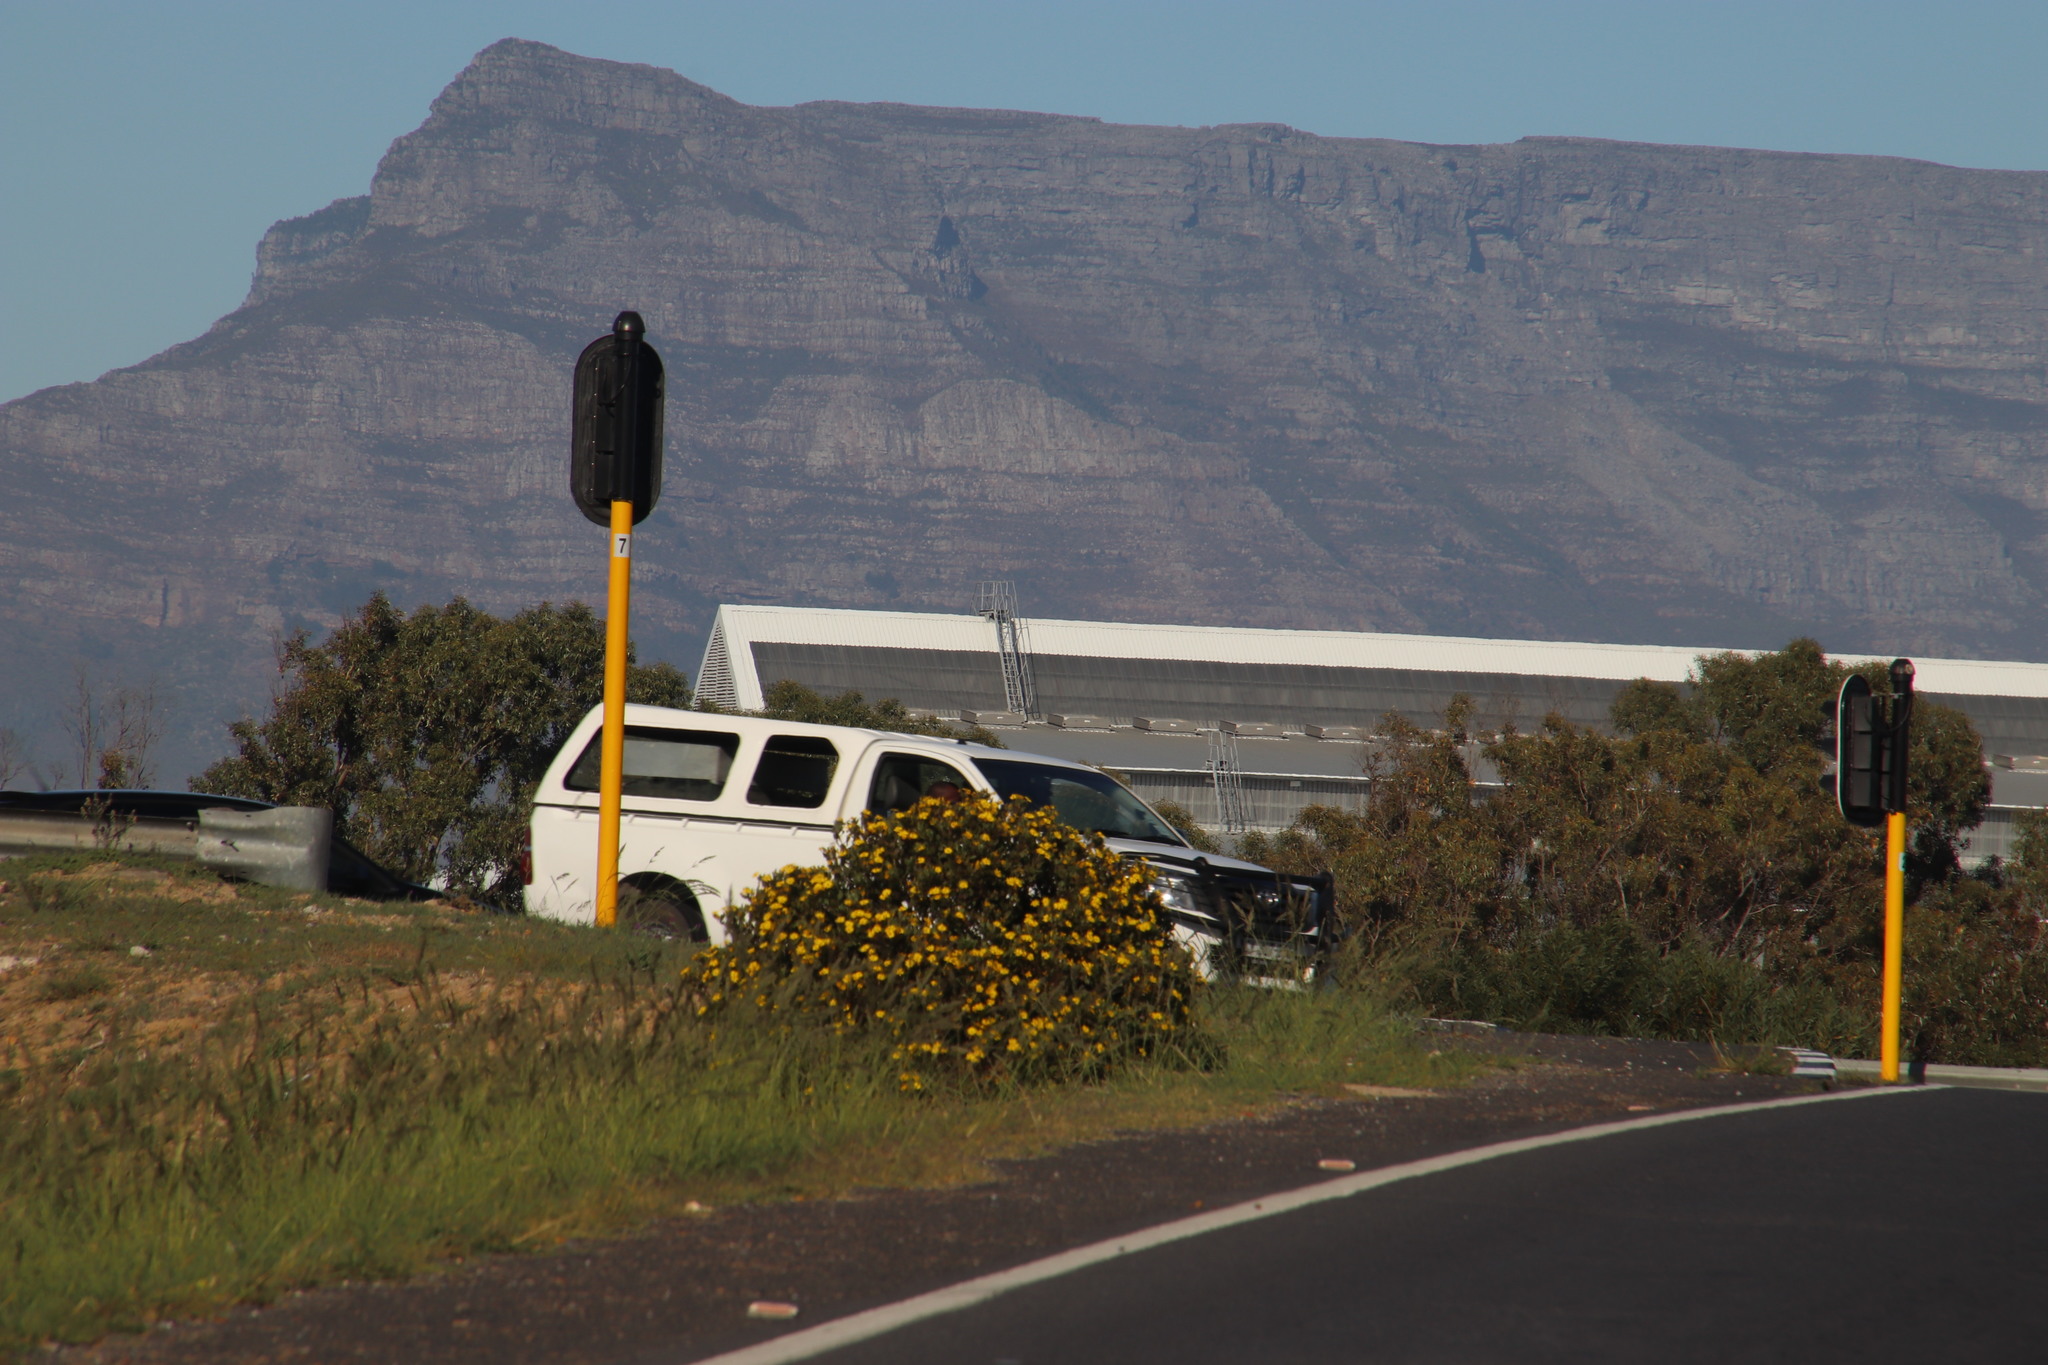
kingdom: Plantae
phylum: Tracheophyta
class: Magnoliopsida
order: Asterales
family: Asteraceae
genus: Osteospermum
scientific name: Osteospermum moniliferum
